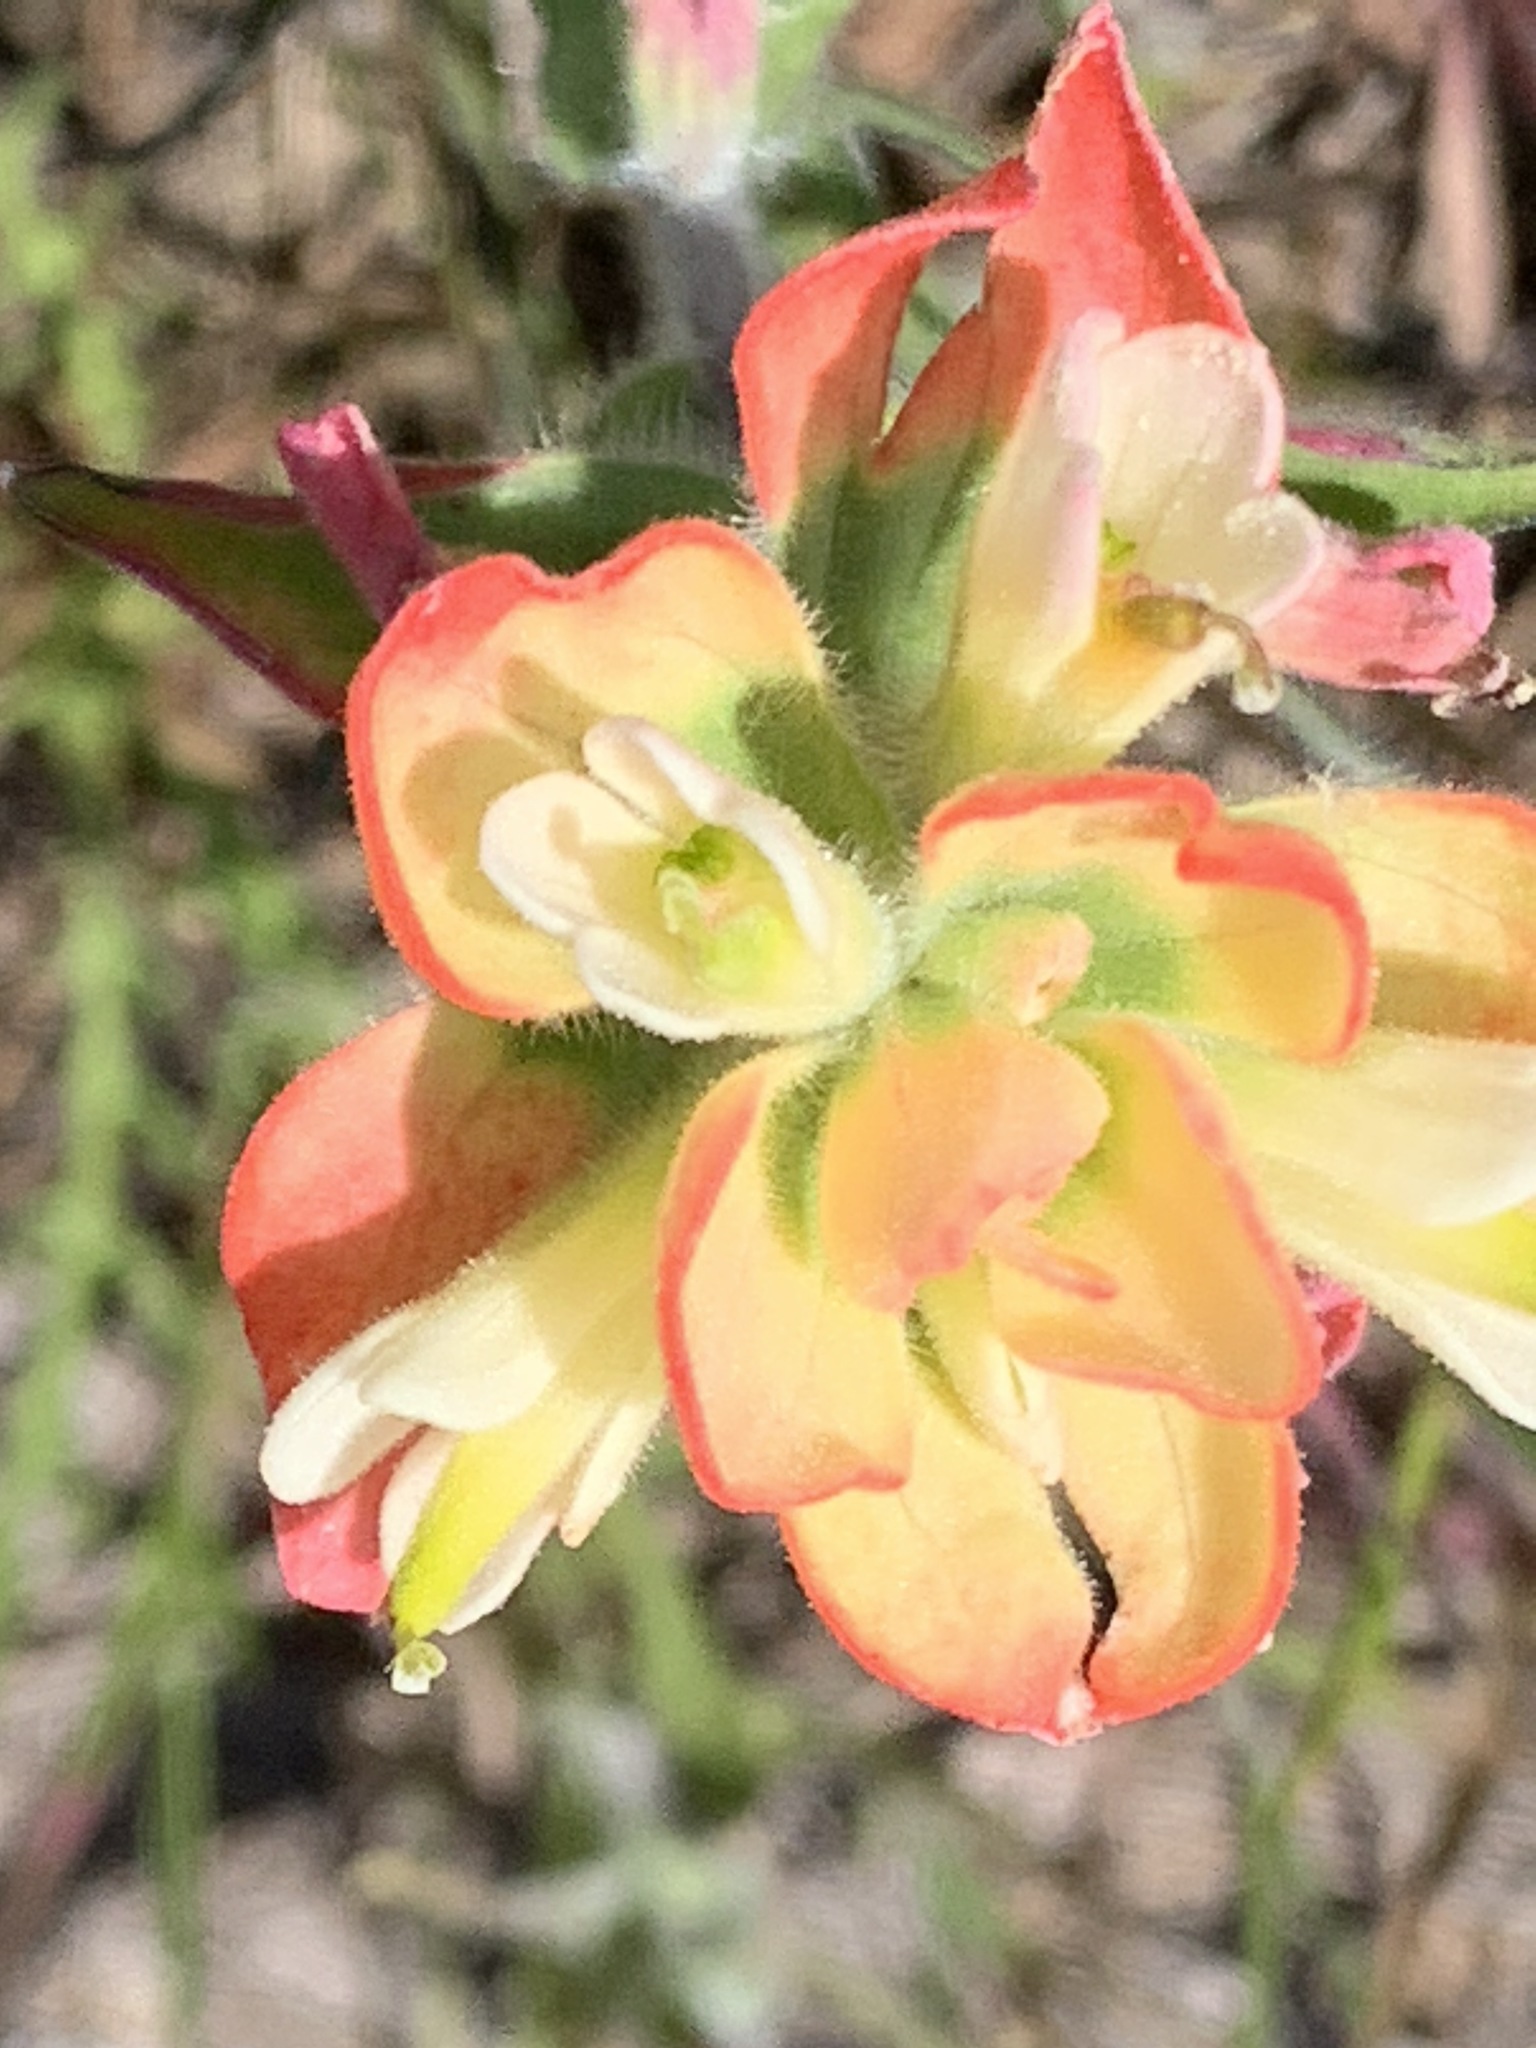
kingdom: Plantae
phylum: Tracheophyta
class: Magnoliopsida
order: Lamiales
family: Orobanchaceae
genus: Castilleja
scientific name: Castilleja indivisa
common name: Texas paintbrush
